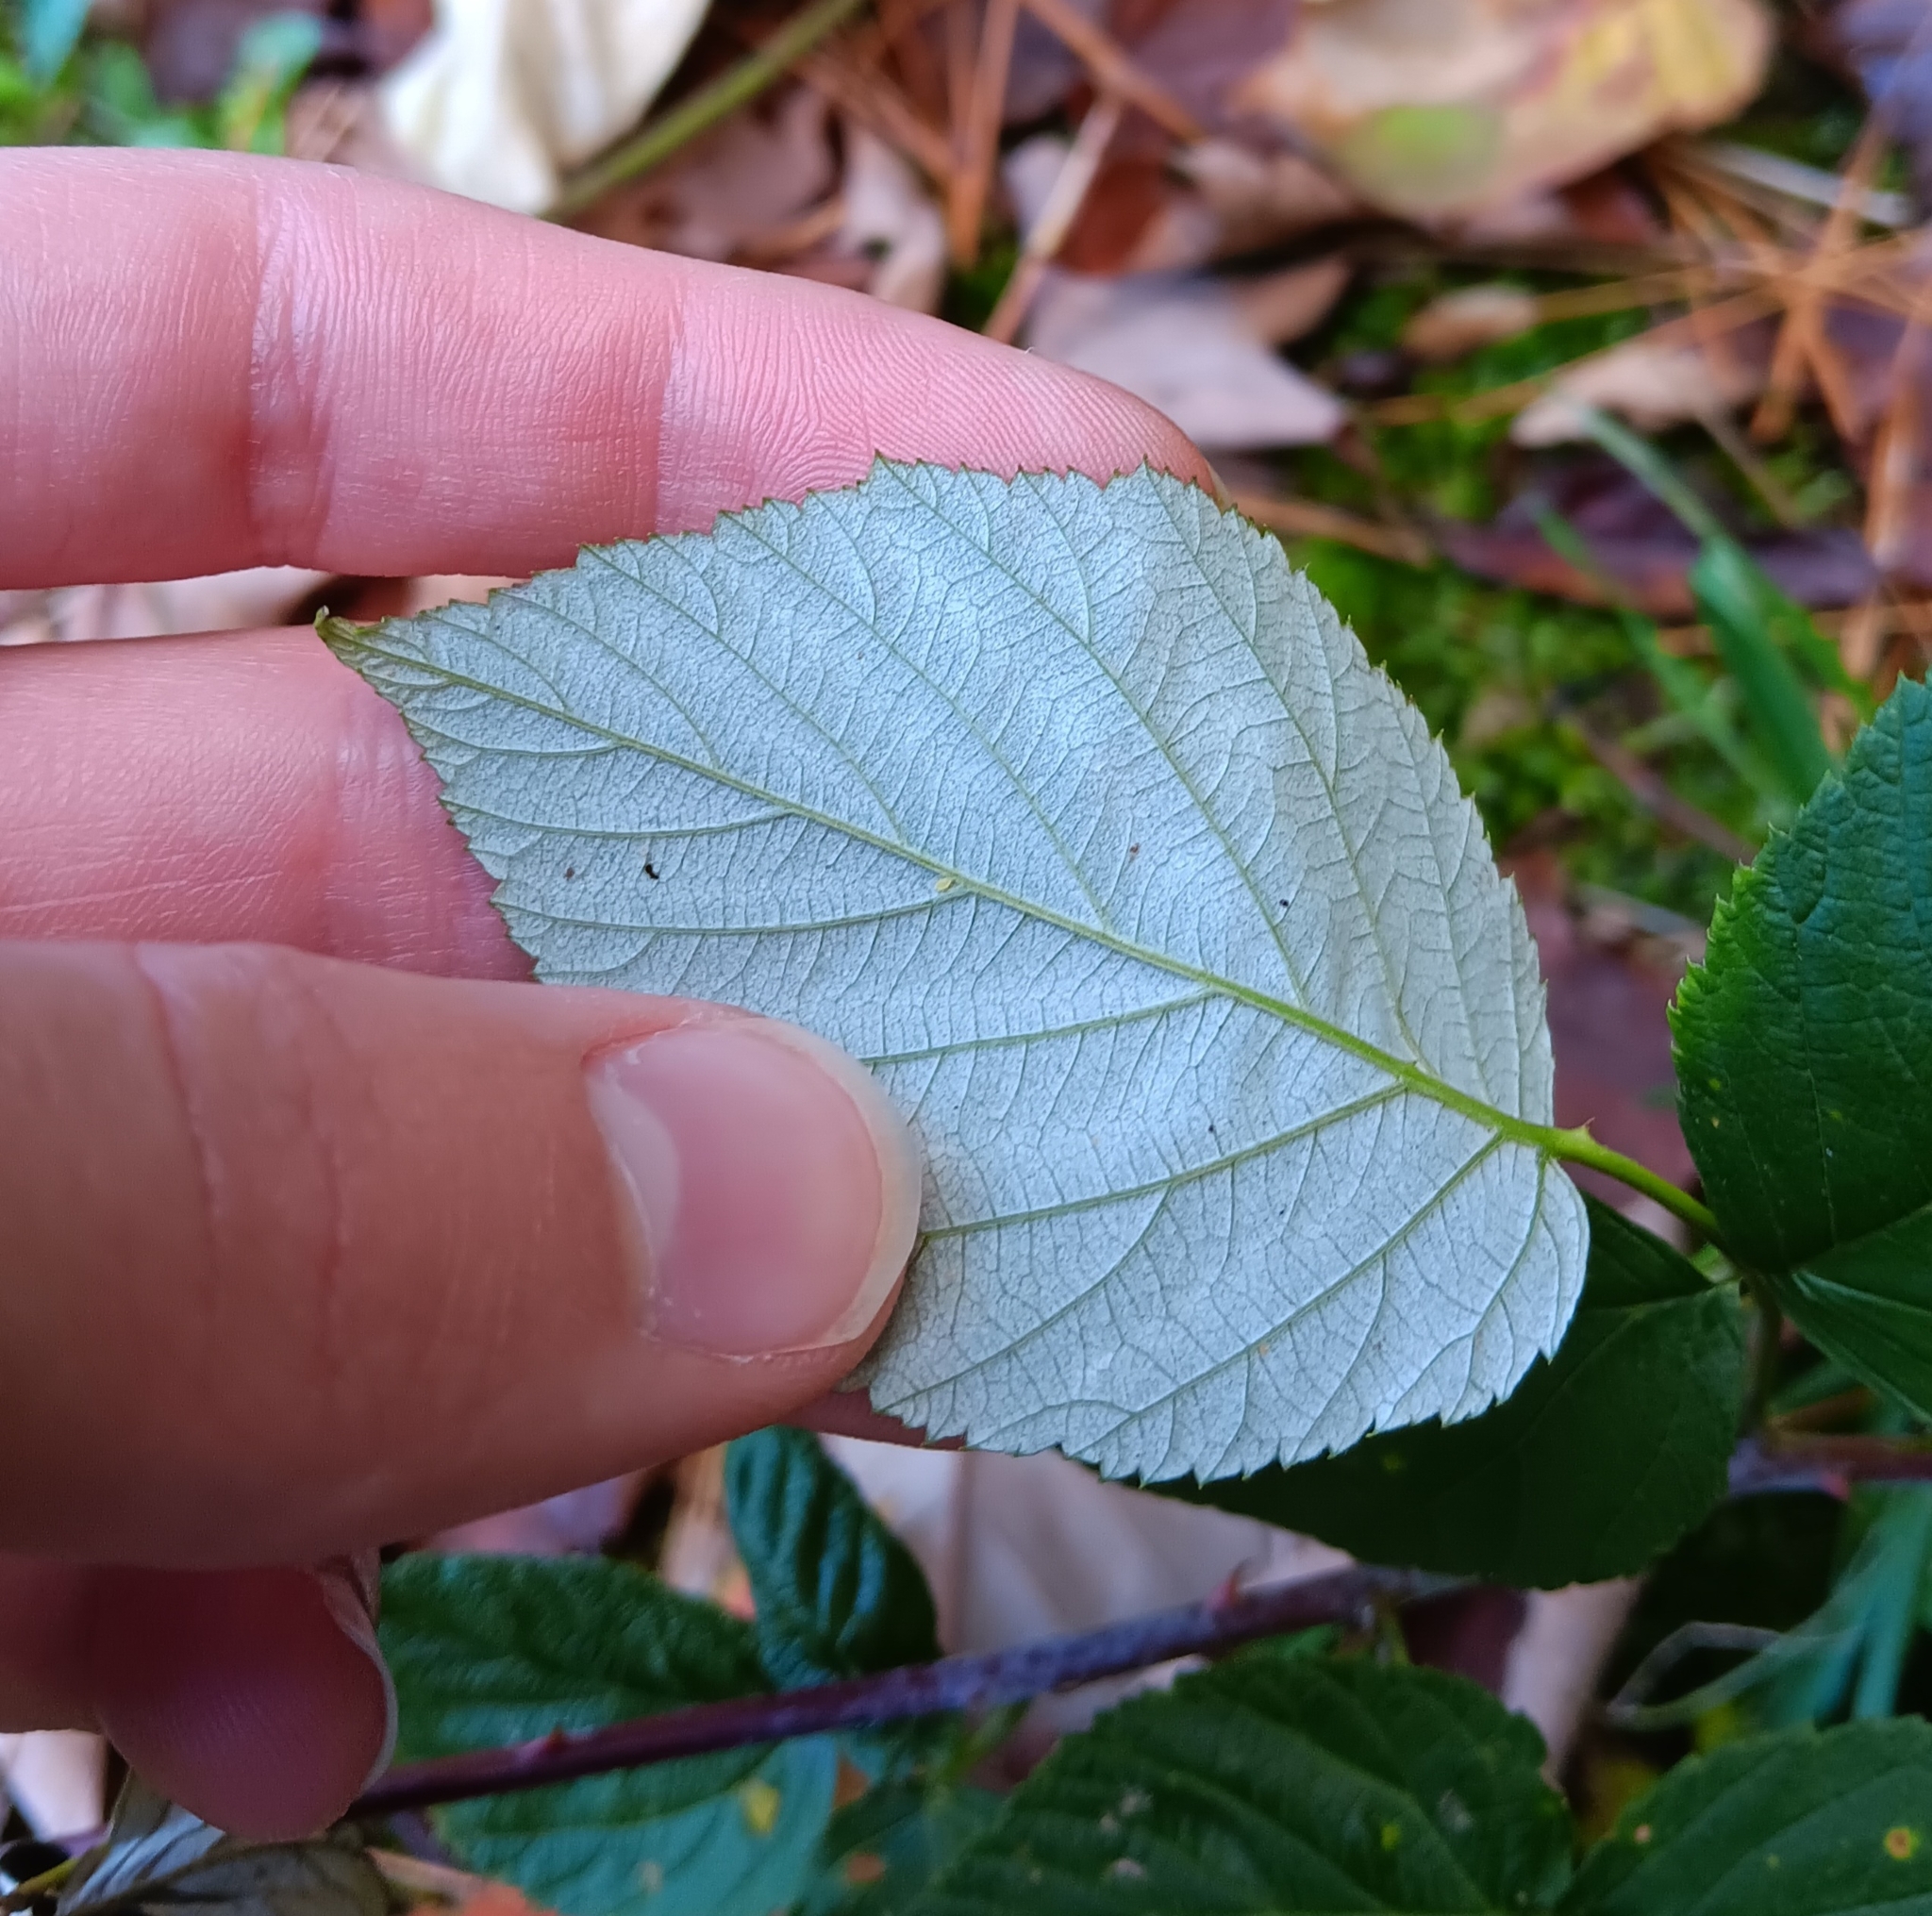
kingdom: Plantae
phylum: Tracheophyta
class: Magnoliopsida
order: Rosales
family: Rosaceae
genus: Rubus
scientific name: Rubus occidentalis
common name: Black raspberry
